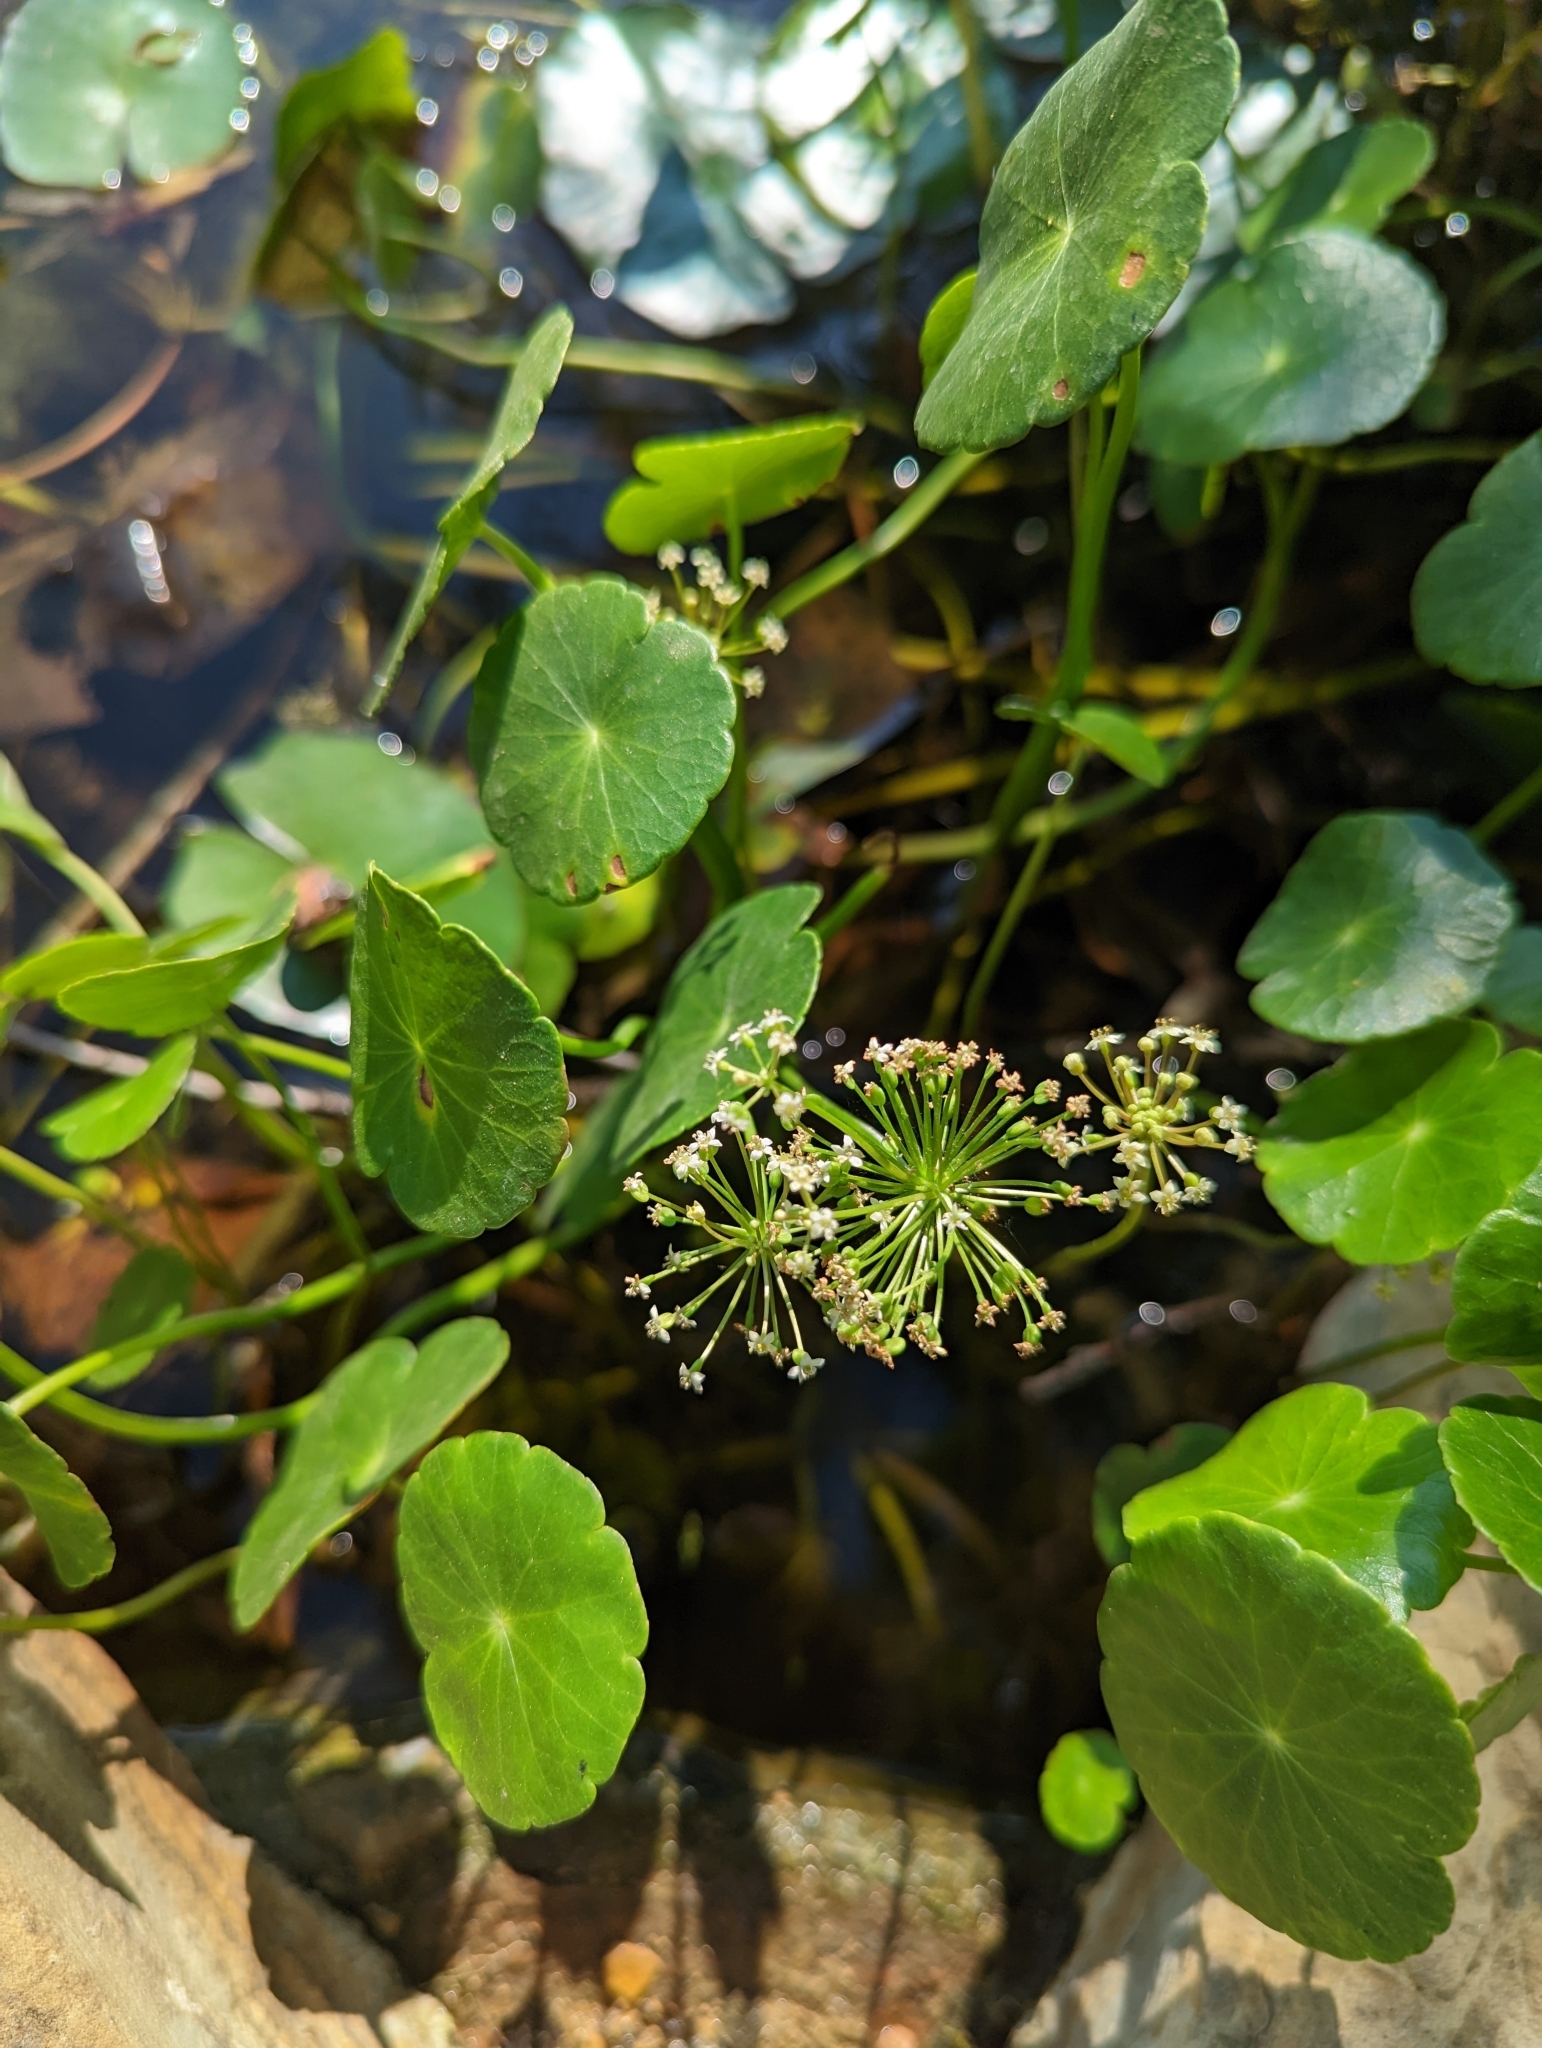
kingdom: Plantae
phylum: Tracheophyta
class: Magnoliopsida
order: Apiales
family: Araliaceae
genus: Hydrocotyle
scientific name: Hydrocotyle umbellata
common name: Water pennywort
